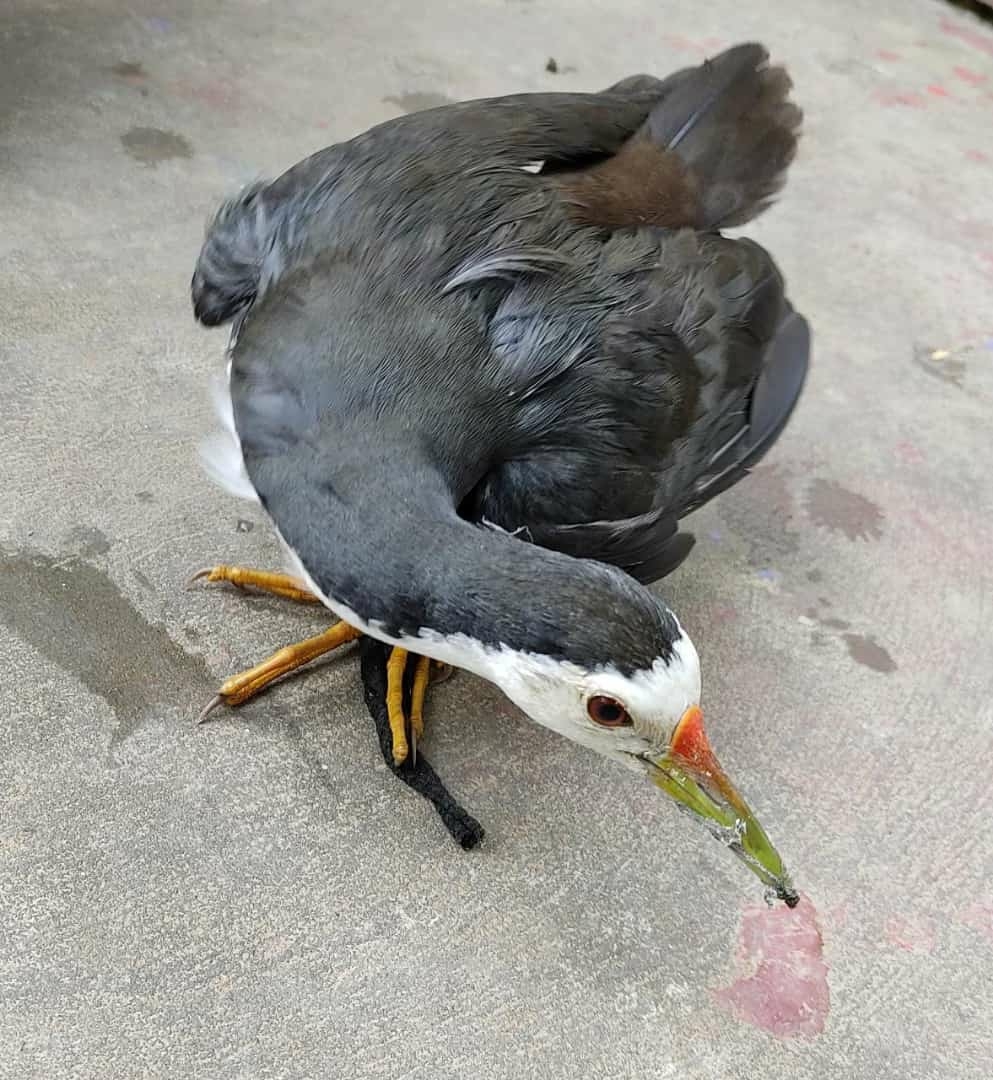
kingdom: Animalia
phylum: Chordata
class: Aves
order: Gruiformes
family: Rallidae
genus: Amaurornis
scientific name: Amaurornis phoenicurus
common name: White-breasted waterhen
